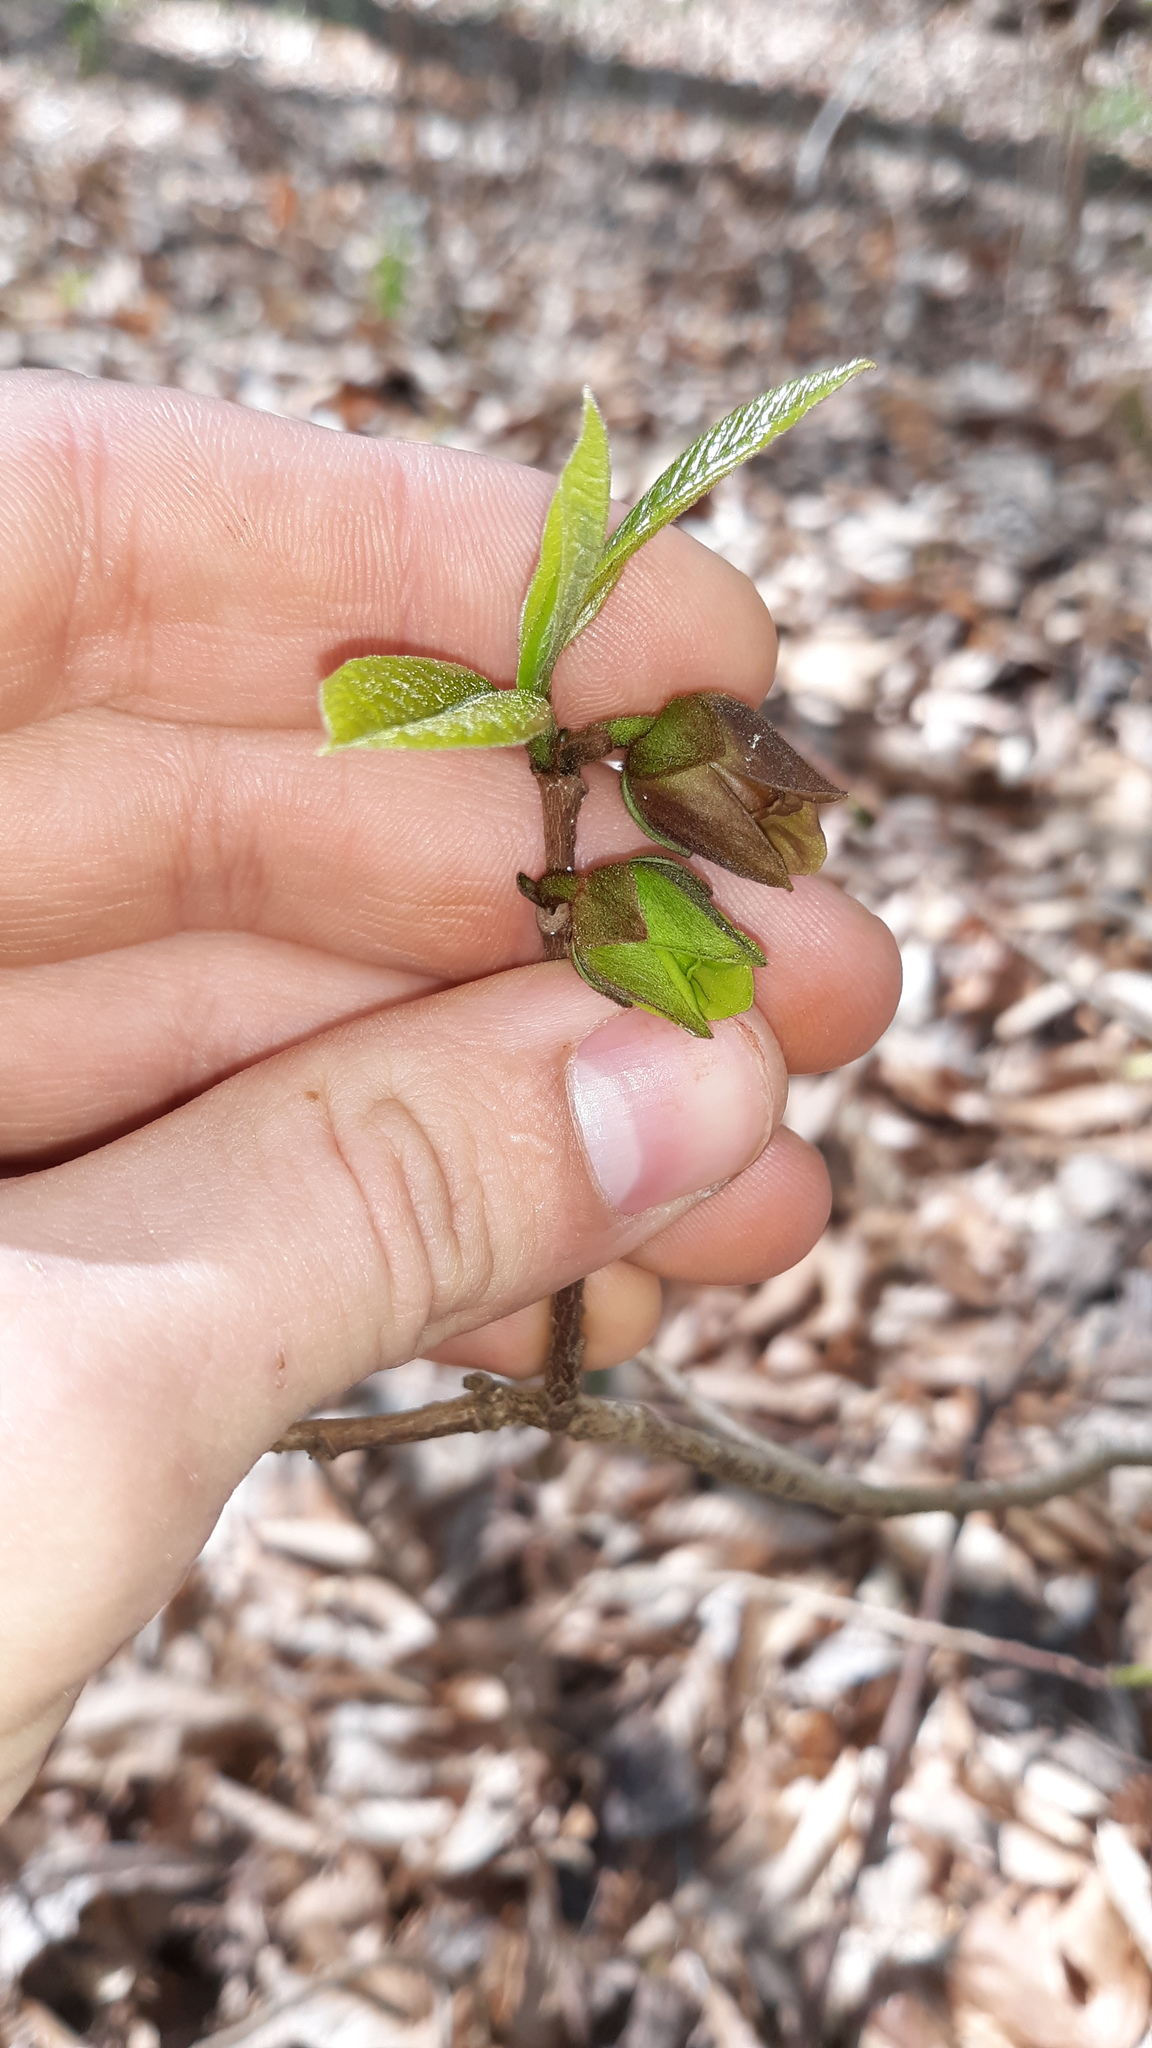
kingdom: Plantae
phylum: Tracheophyta
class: Magnoliopsida
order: Magnoliales
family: Annonaceae
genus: Asimina
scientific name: Asimina parviflora
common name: Dwarf pawpaw
